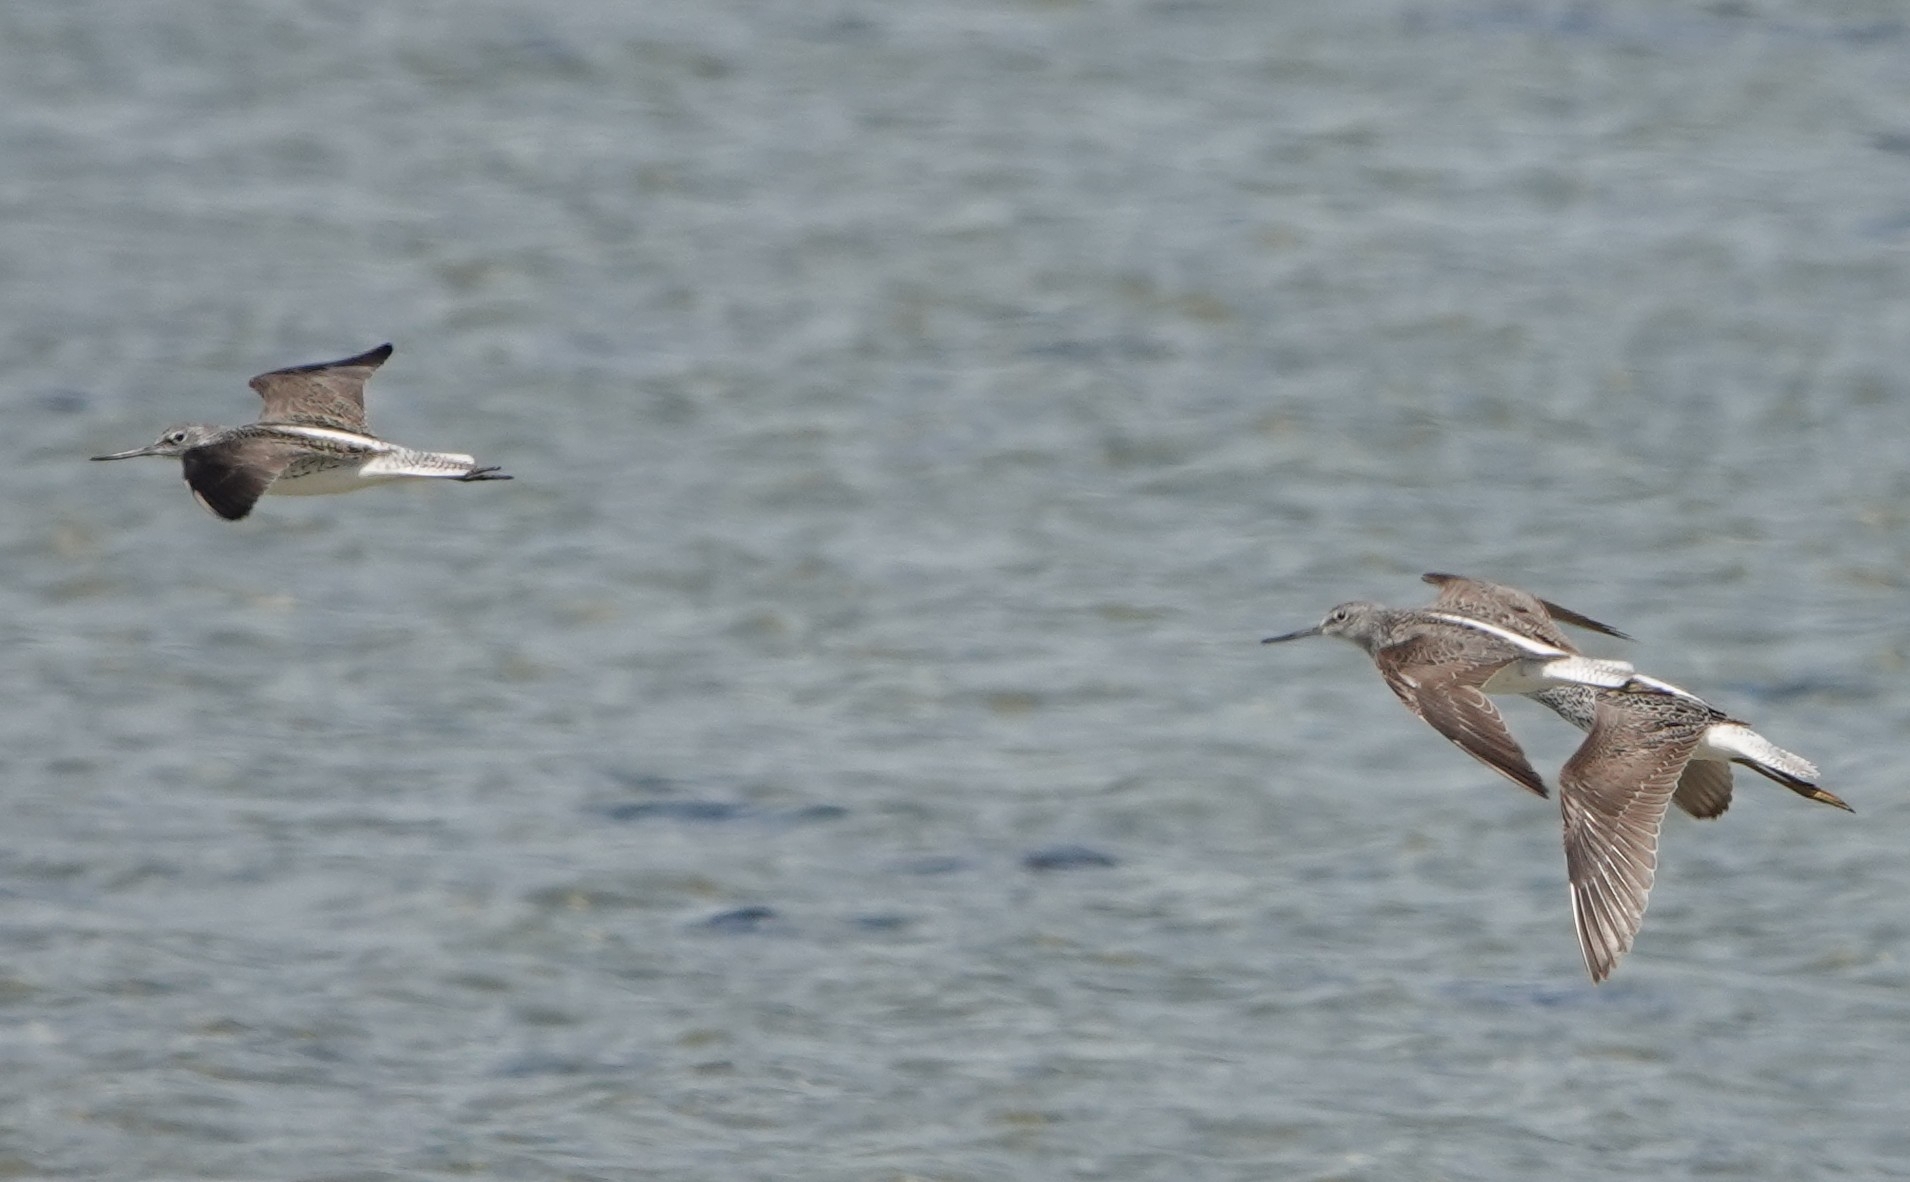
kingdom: Animalia
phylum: Chordata
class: Aves
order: Charadriiformes
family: Scolopacidae
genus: Tringa
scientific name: Tringa nebularia
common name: Common greenshank
